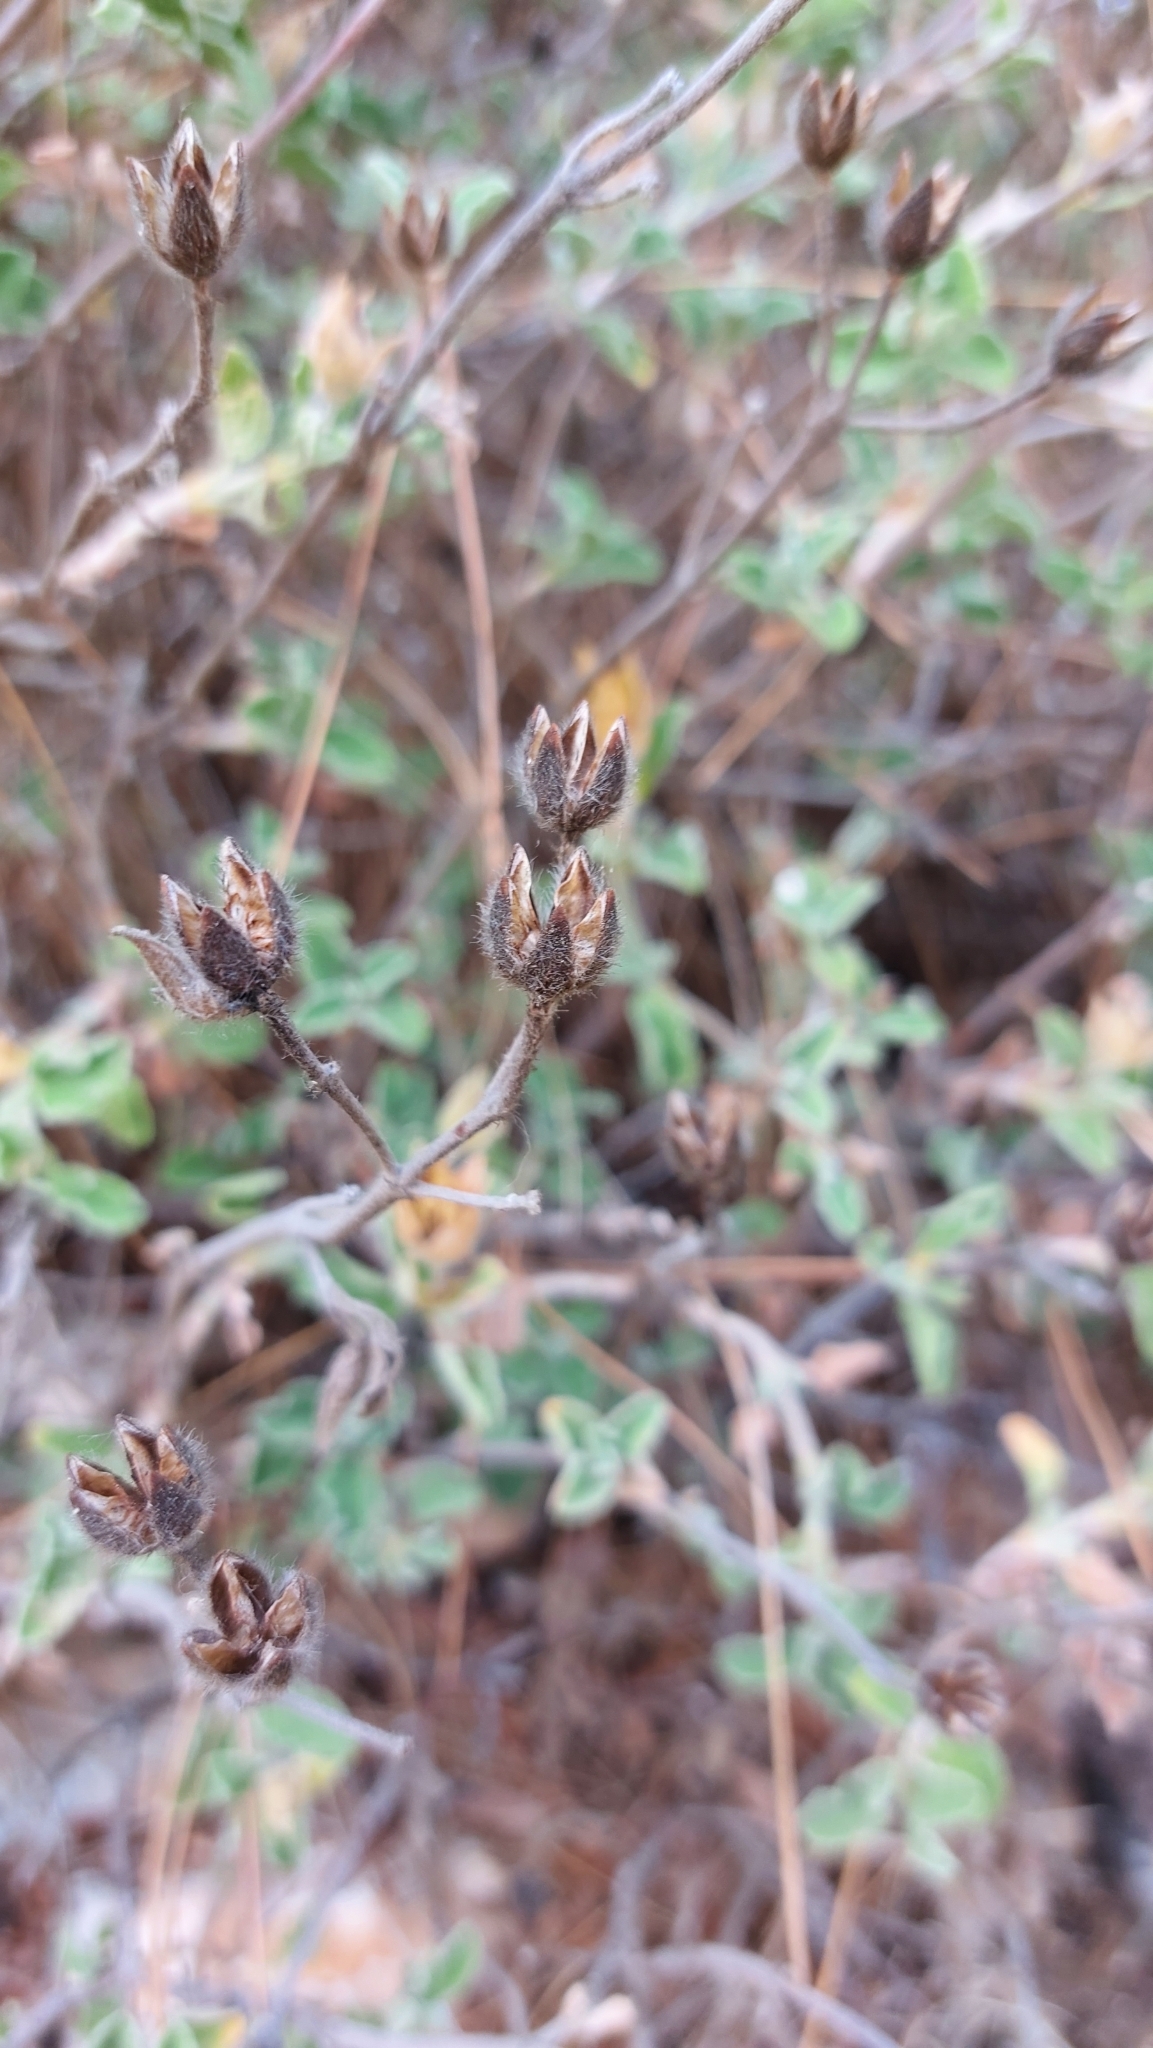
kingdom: Plantae
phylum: Tracheophyta
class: Magnoliopsida
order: Malvales
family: Cistaceae
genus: Cistus
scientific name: Cistus creticus
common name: Cretan rockrose
